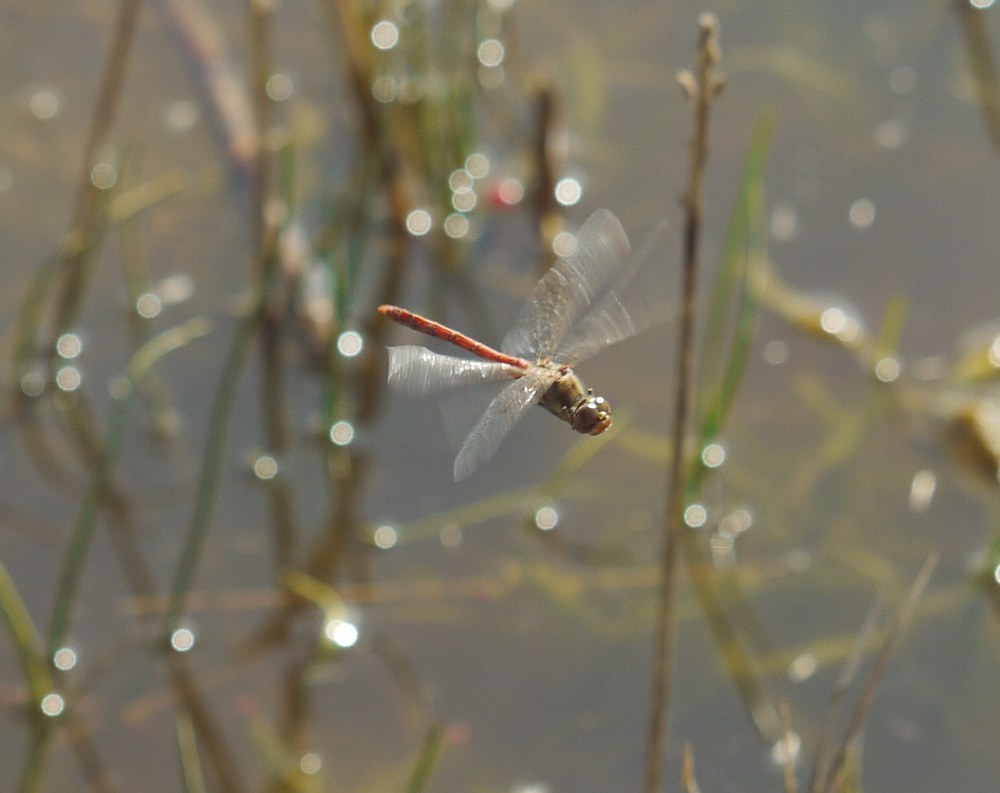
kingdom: Animalia
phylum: Arthropoda
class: Insecta
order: Odonata
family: Libellulidae
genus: Sympetrum
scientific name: Sympetrum striolatum
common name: Common darter
